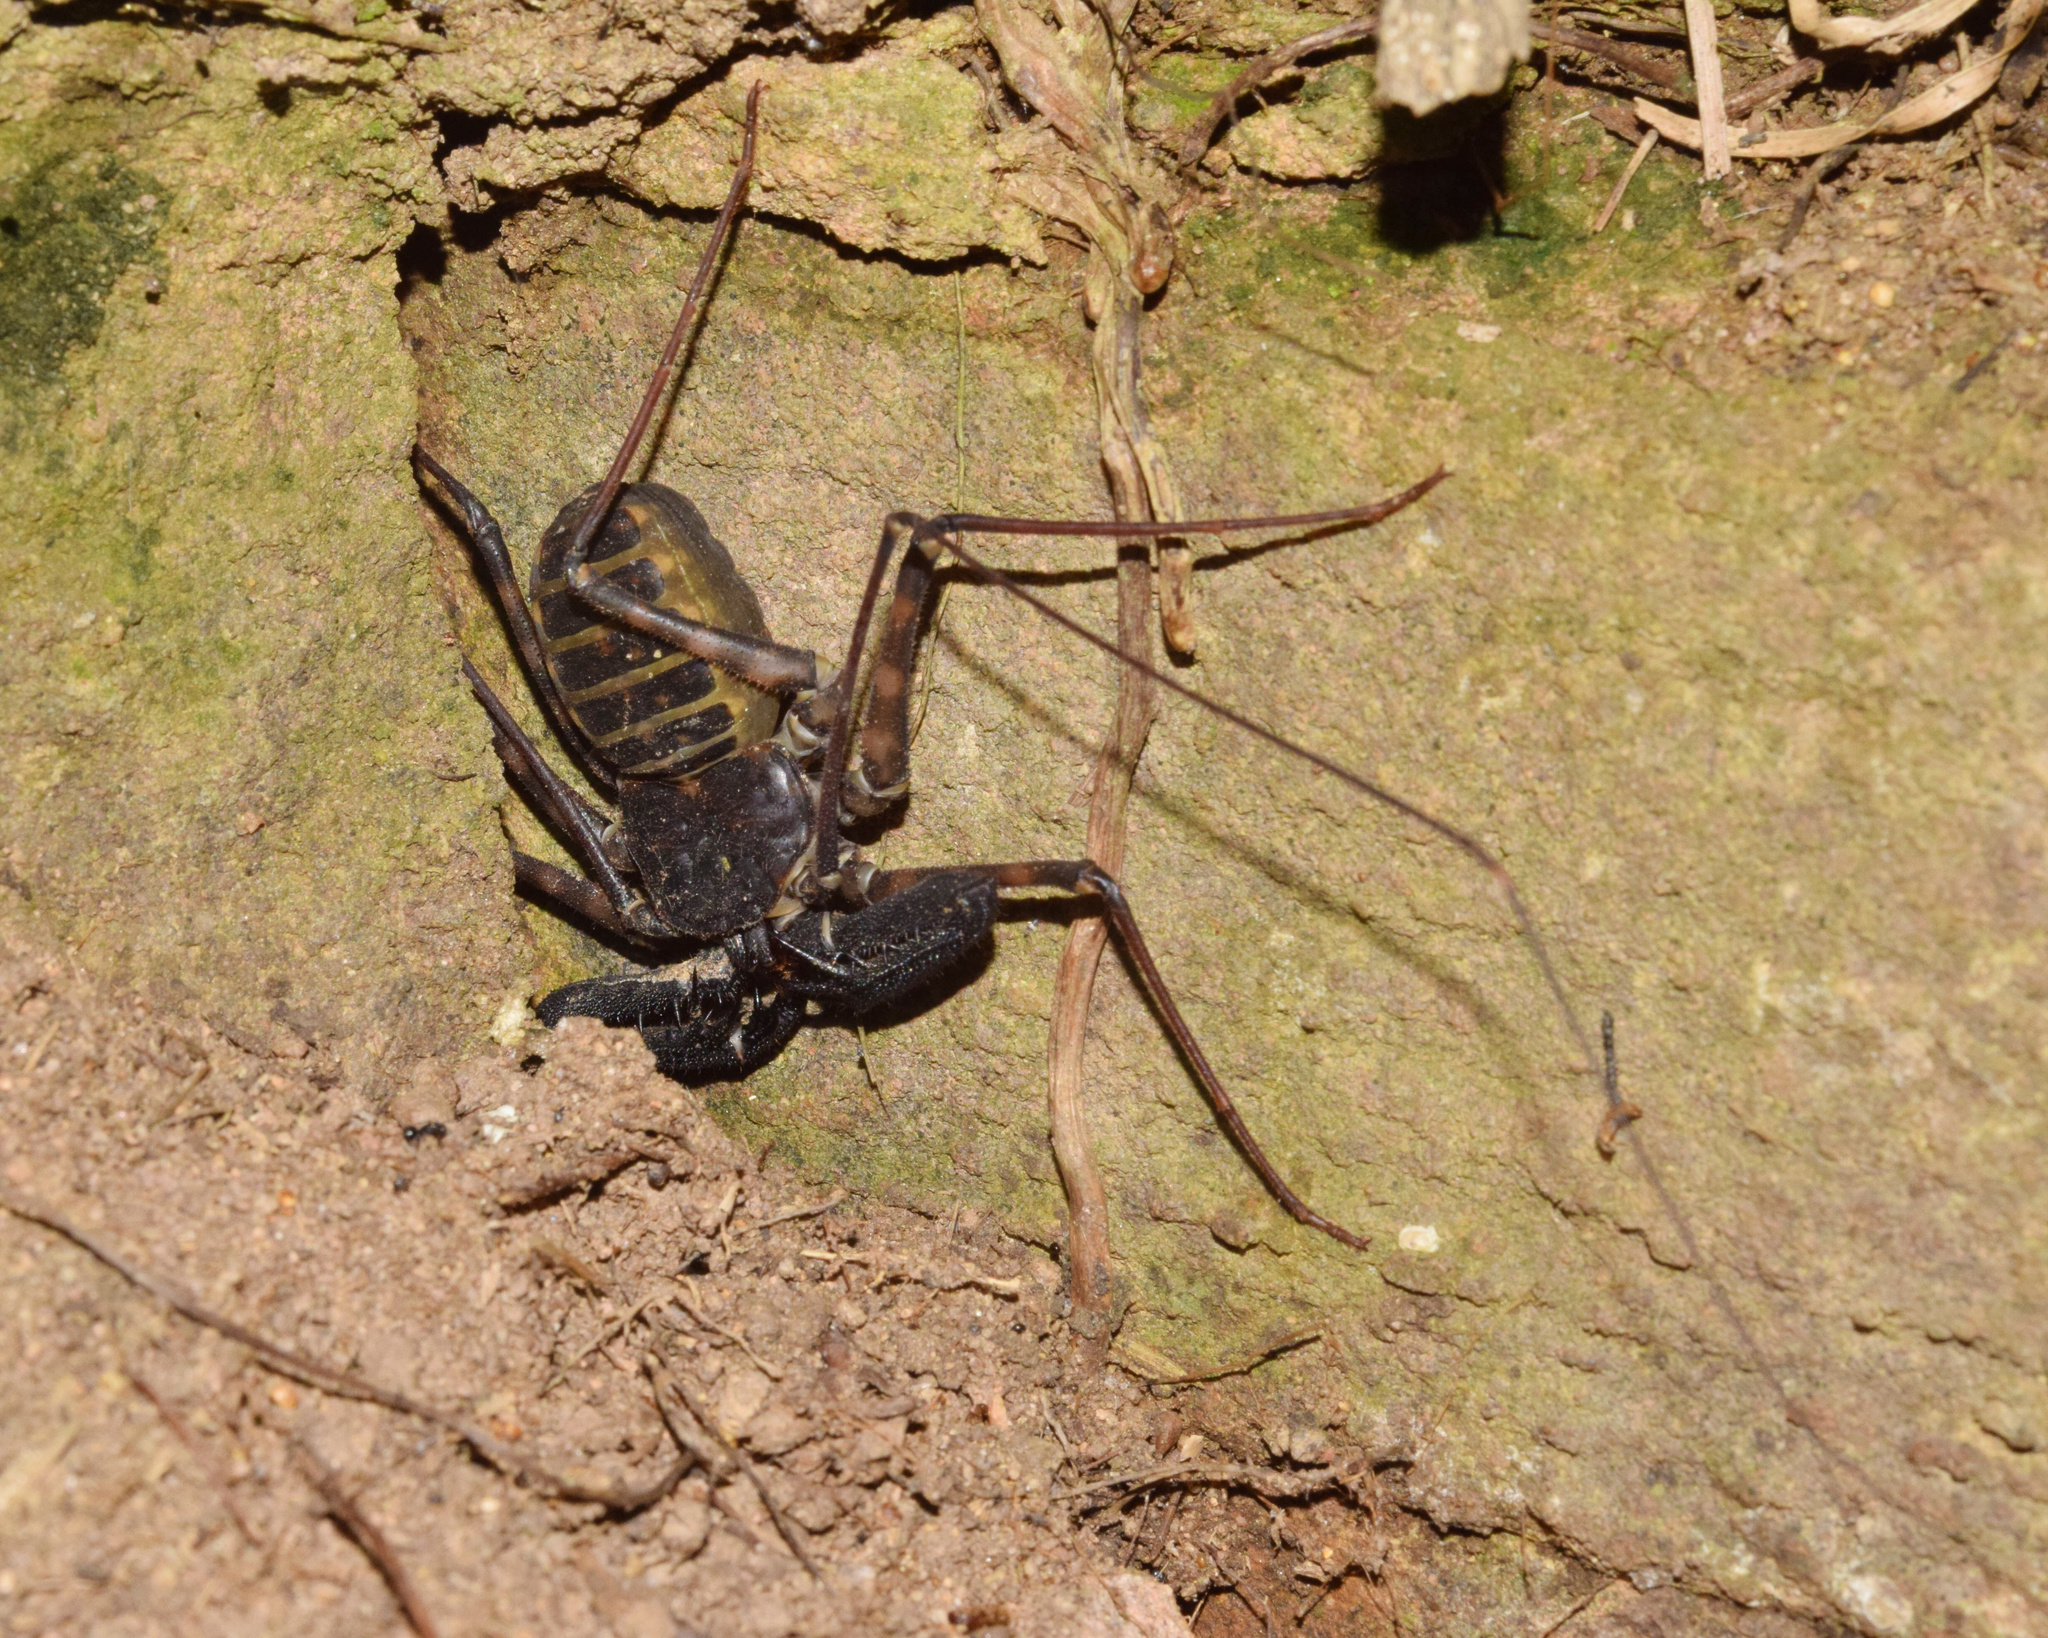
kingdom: Animalia
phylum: Arthropoda
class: Arachnida
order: Amblypygi
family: Phrynichidae
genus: Damon
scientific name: Damon annulatipes
